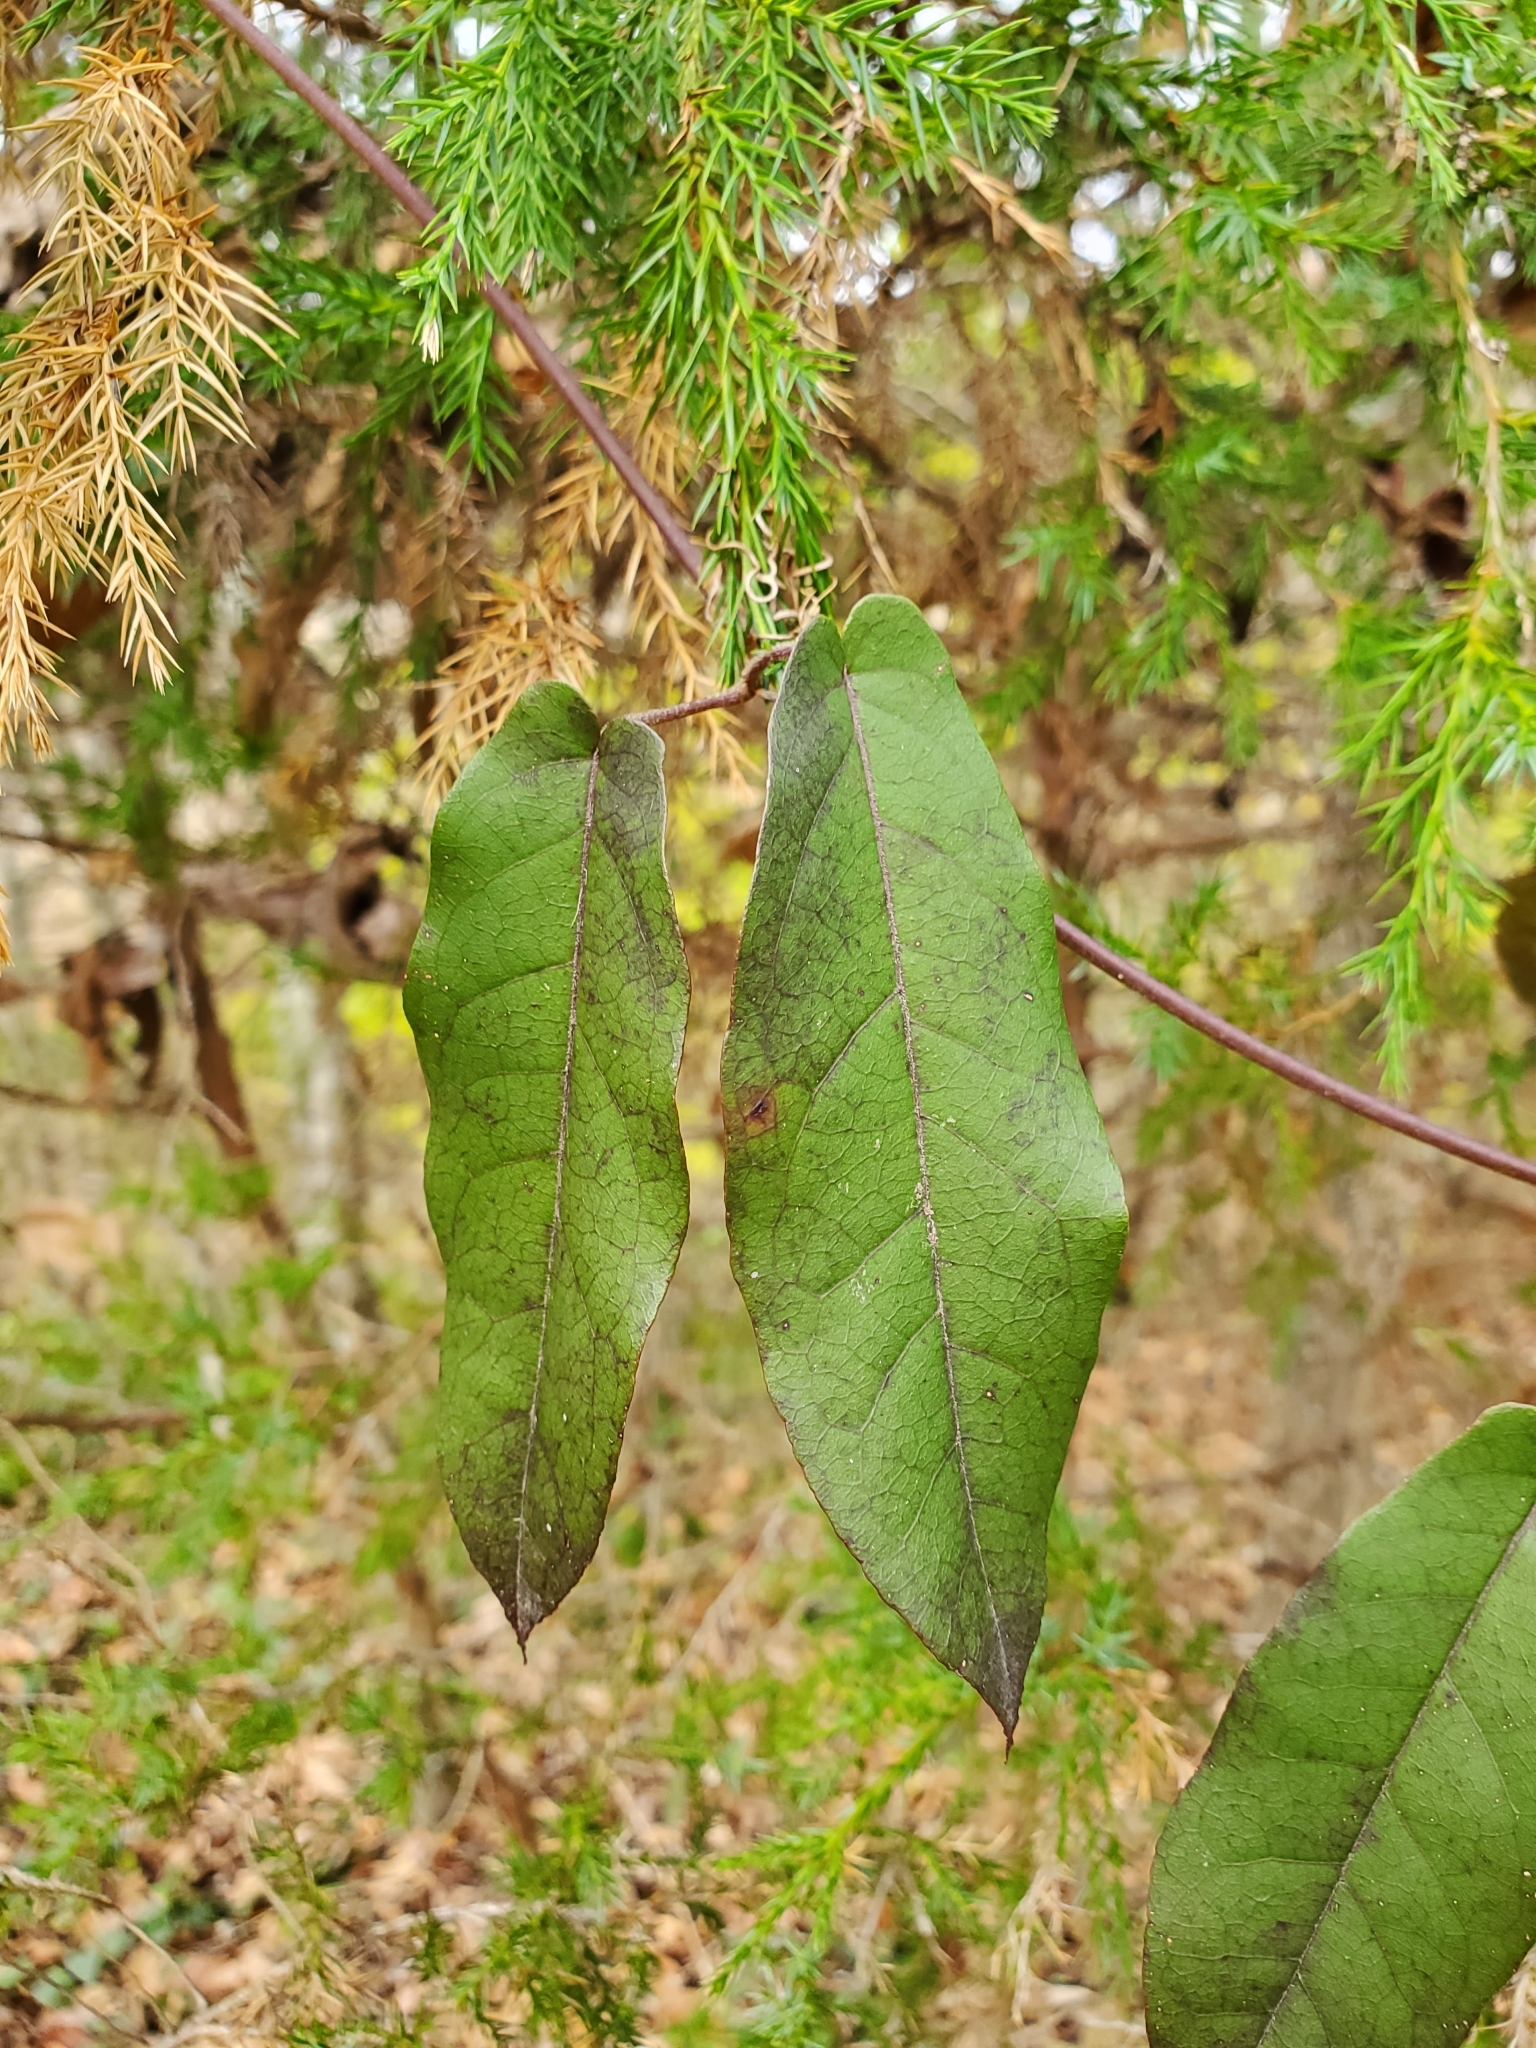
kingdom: Plantae
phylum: Tracheophyta
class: Magnoliopsida
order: Lamiales
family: Bignoniaceae
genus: Bignonia
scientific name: Bignonia capreolata
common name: Crossvine
